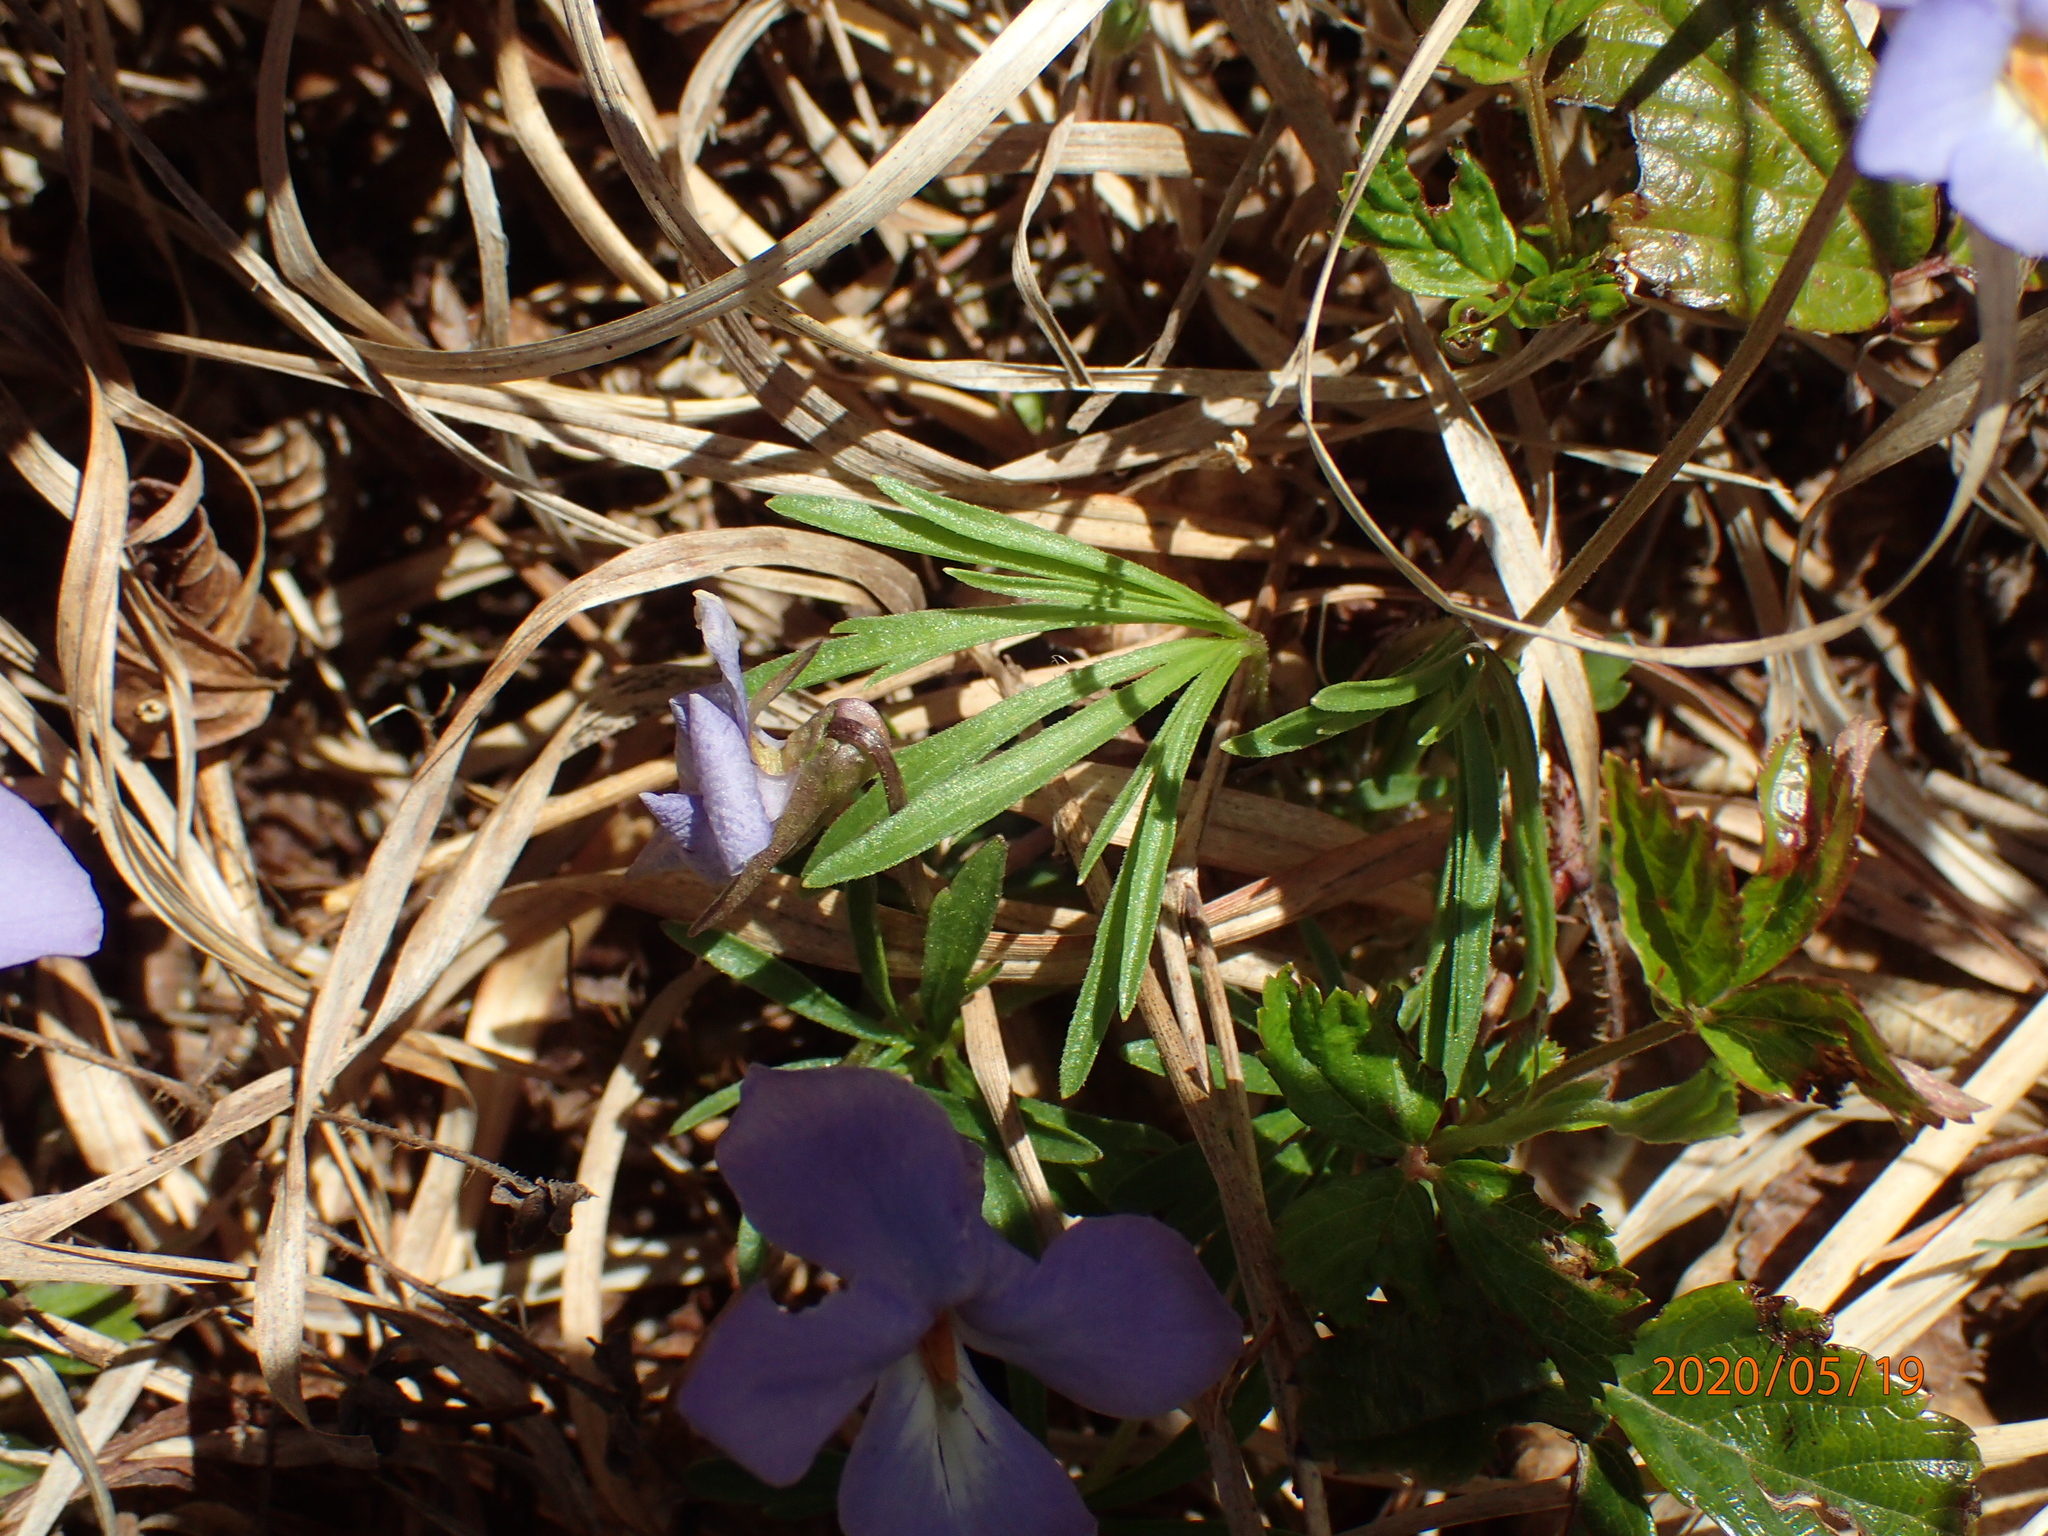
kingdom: Plantae
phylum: Tracheophyta
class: Magnoliopsida
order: Malpighiales
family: Violaceae
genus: Viola
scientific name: Viola pedata
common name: Pansy violet
